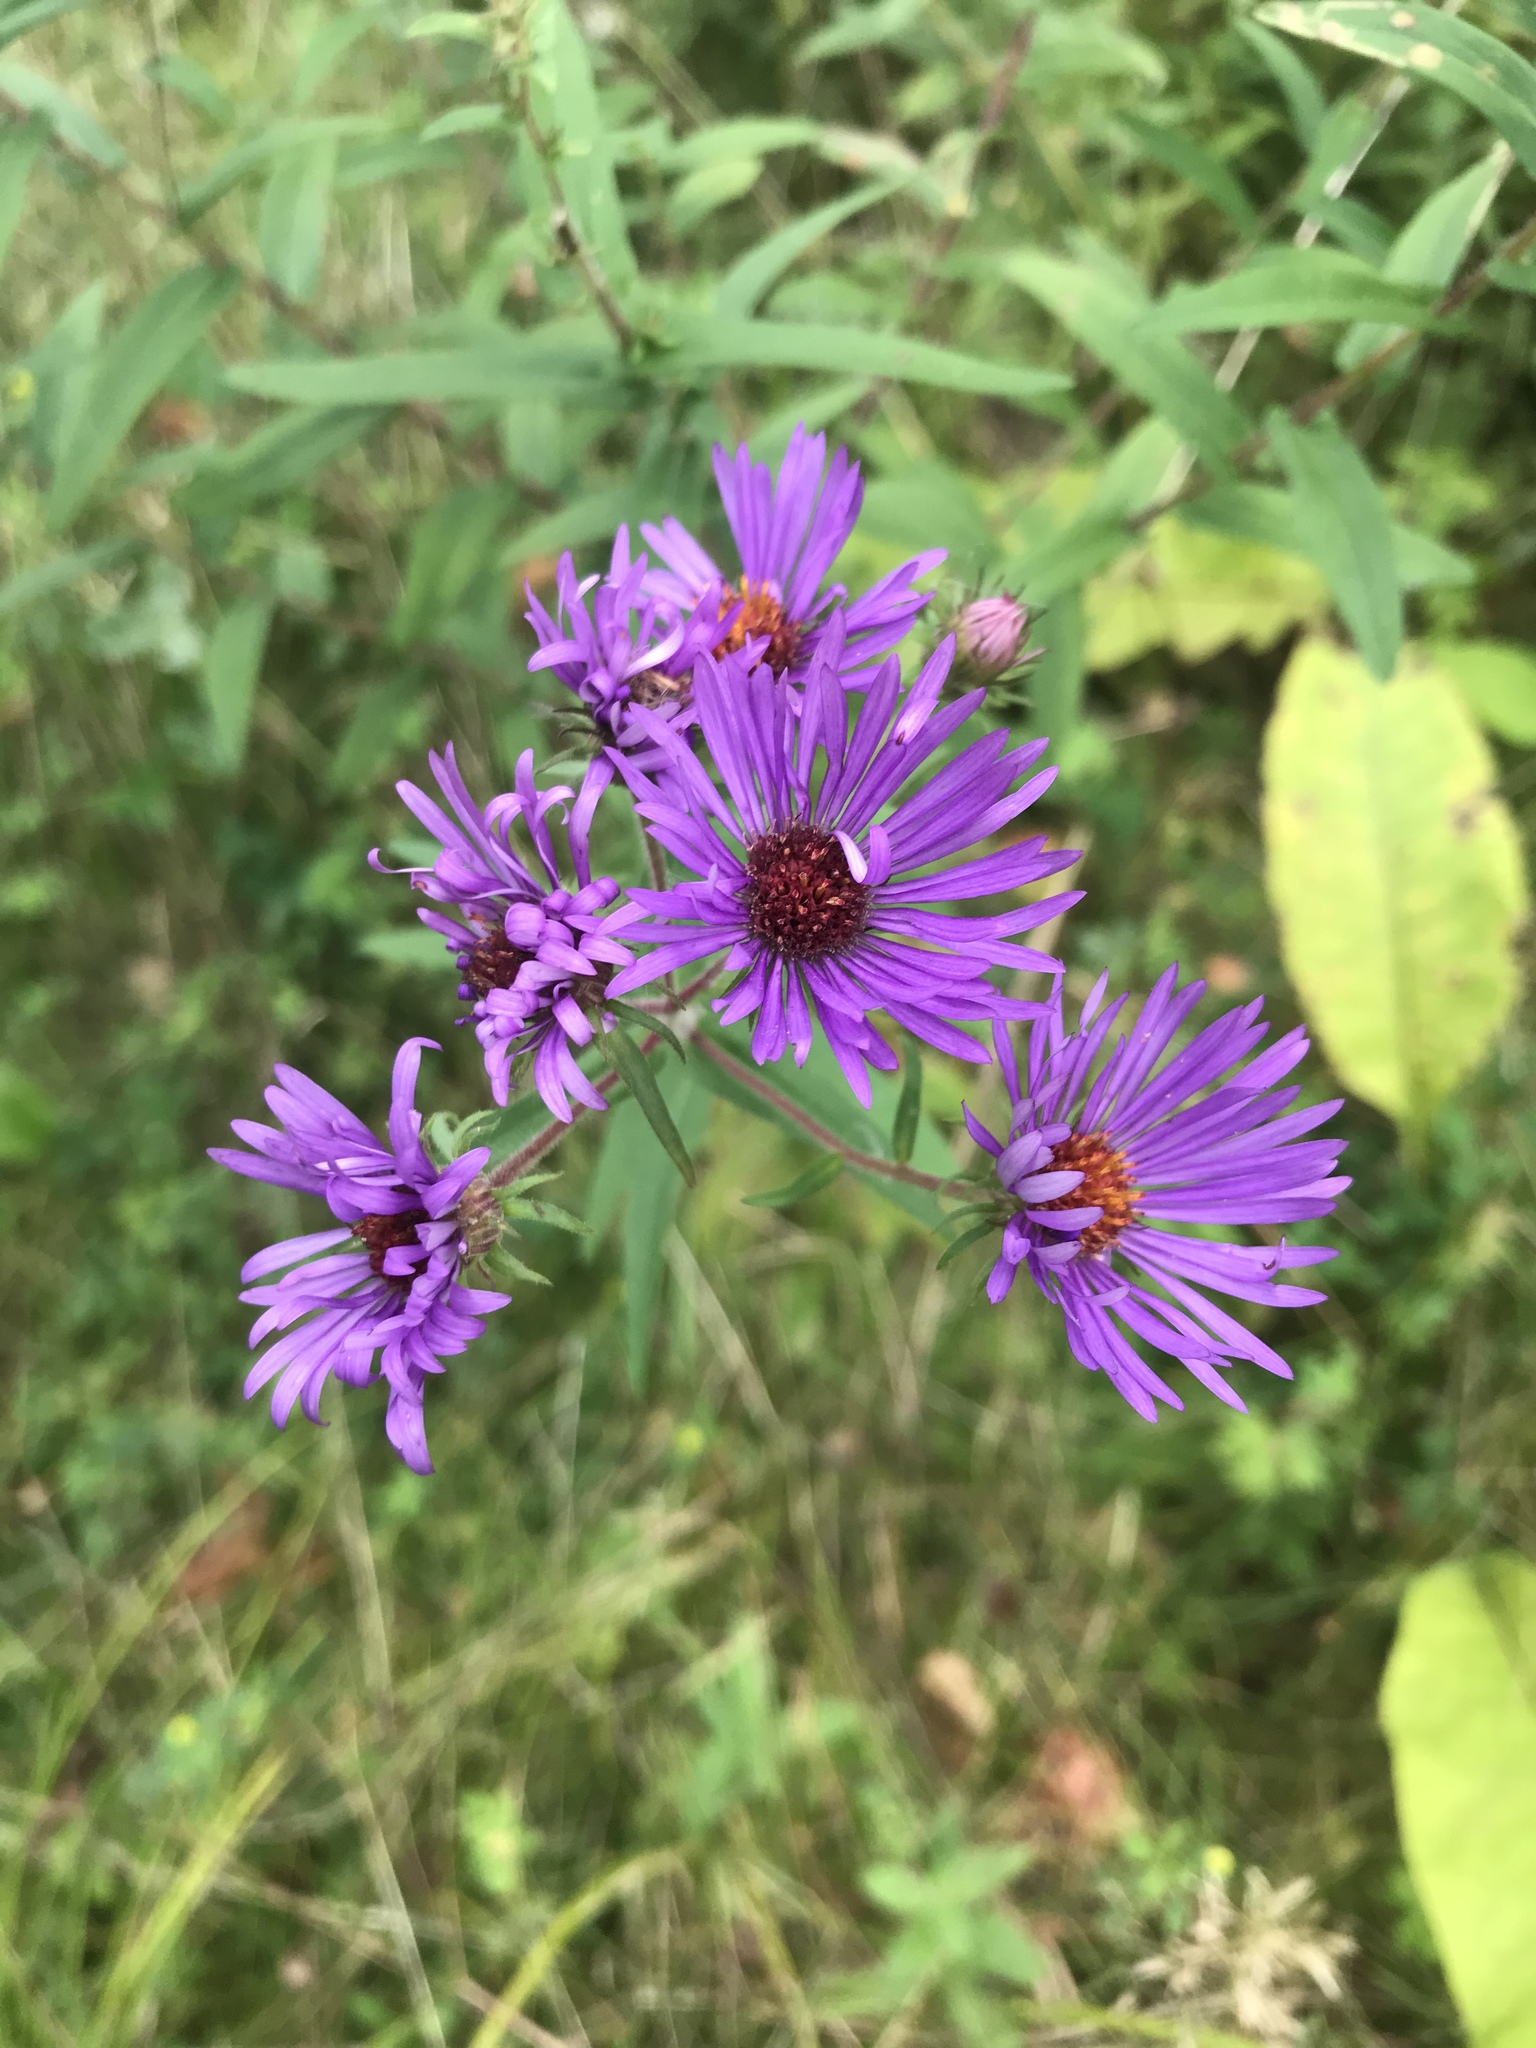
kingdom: Plantae
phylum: Tracheophyta
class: Magnoliopsida
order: Asterales
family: Asteraceae
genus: Symphyotrichum
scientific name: Symphyotrichum novae-angliae
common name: Michaelmas daisy
